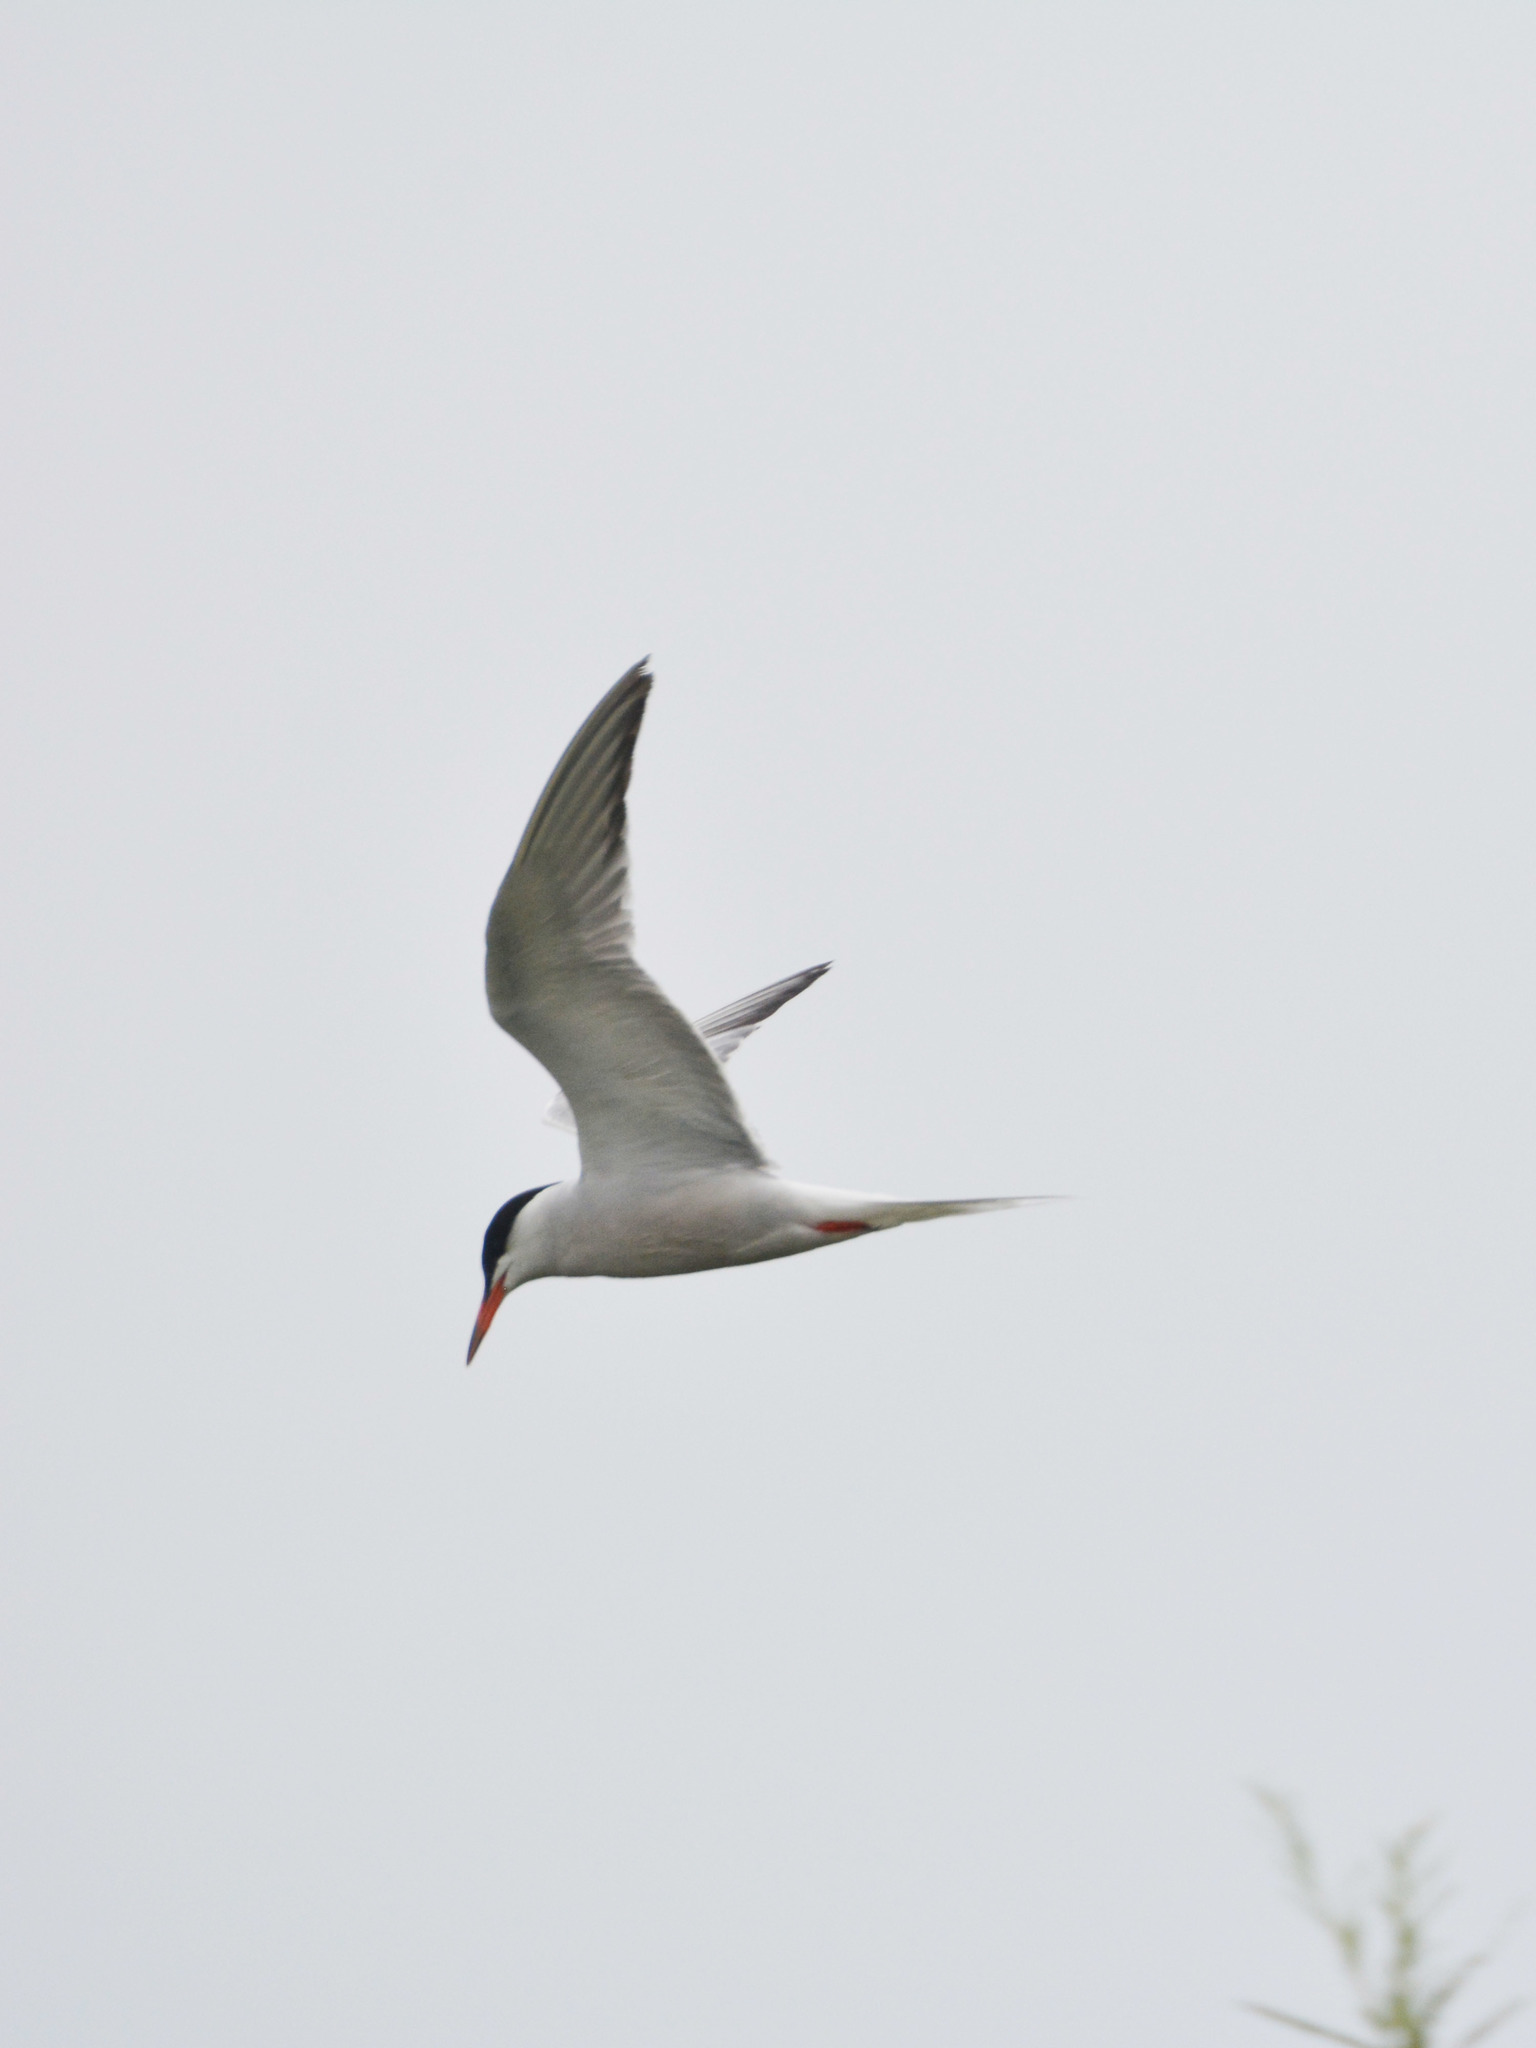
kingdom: Animalia
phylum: Chordata
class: Aves
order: Charadriiformes
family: Laridae
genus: Sterna
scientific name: Sterna hirundo
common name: Common tern
